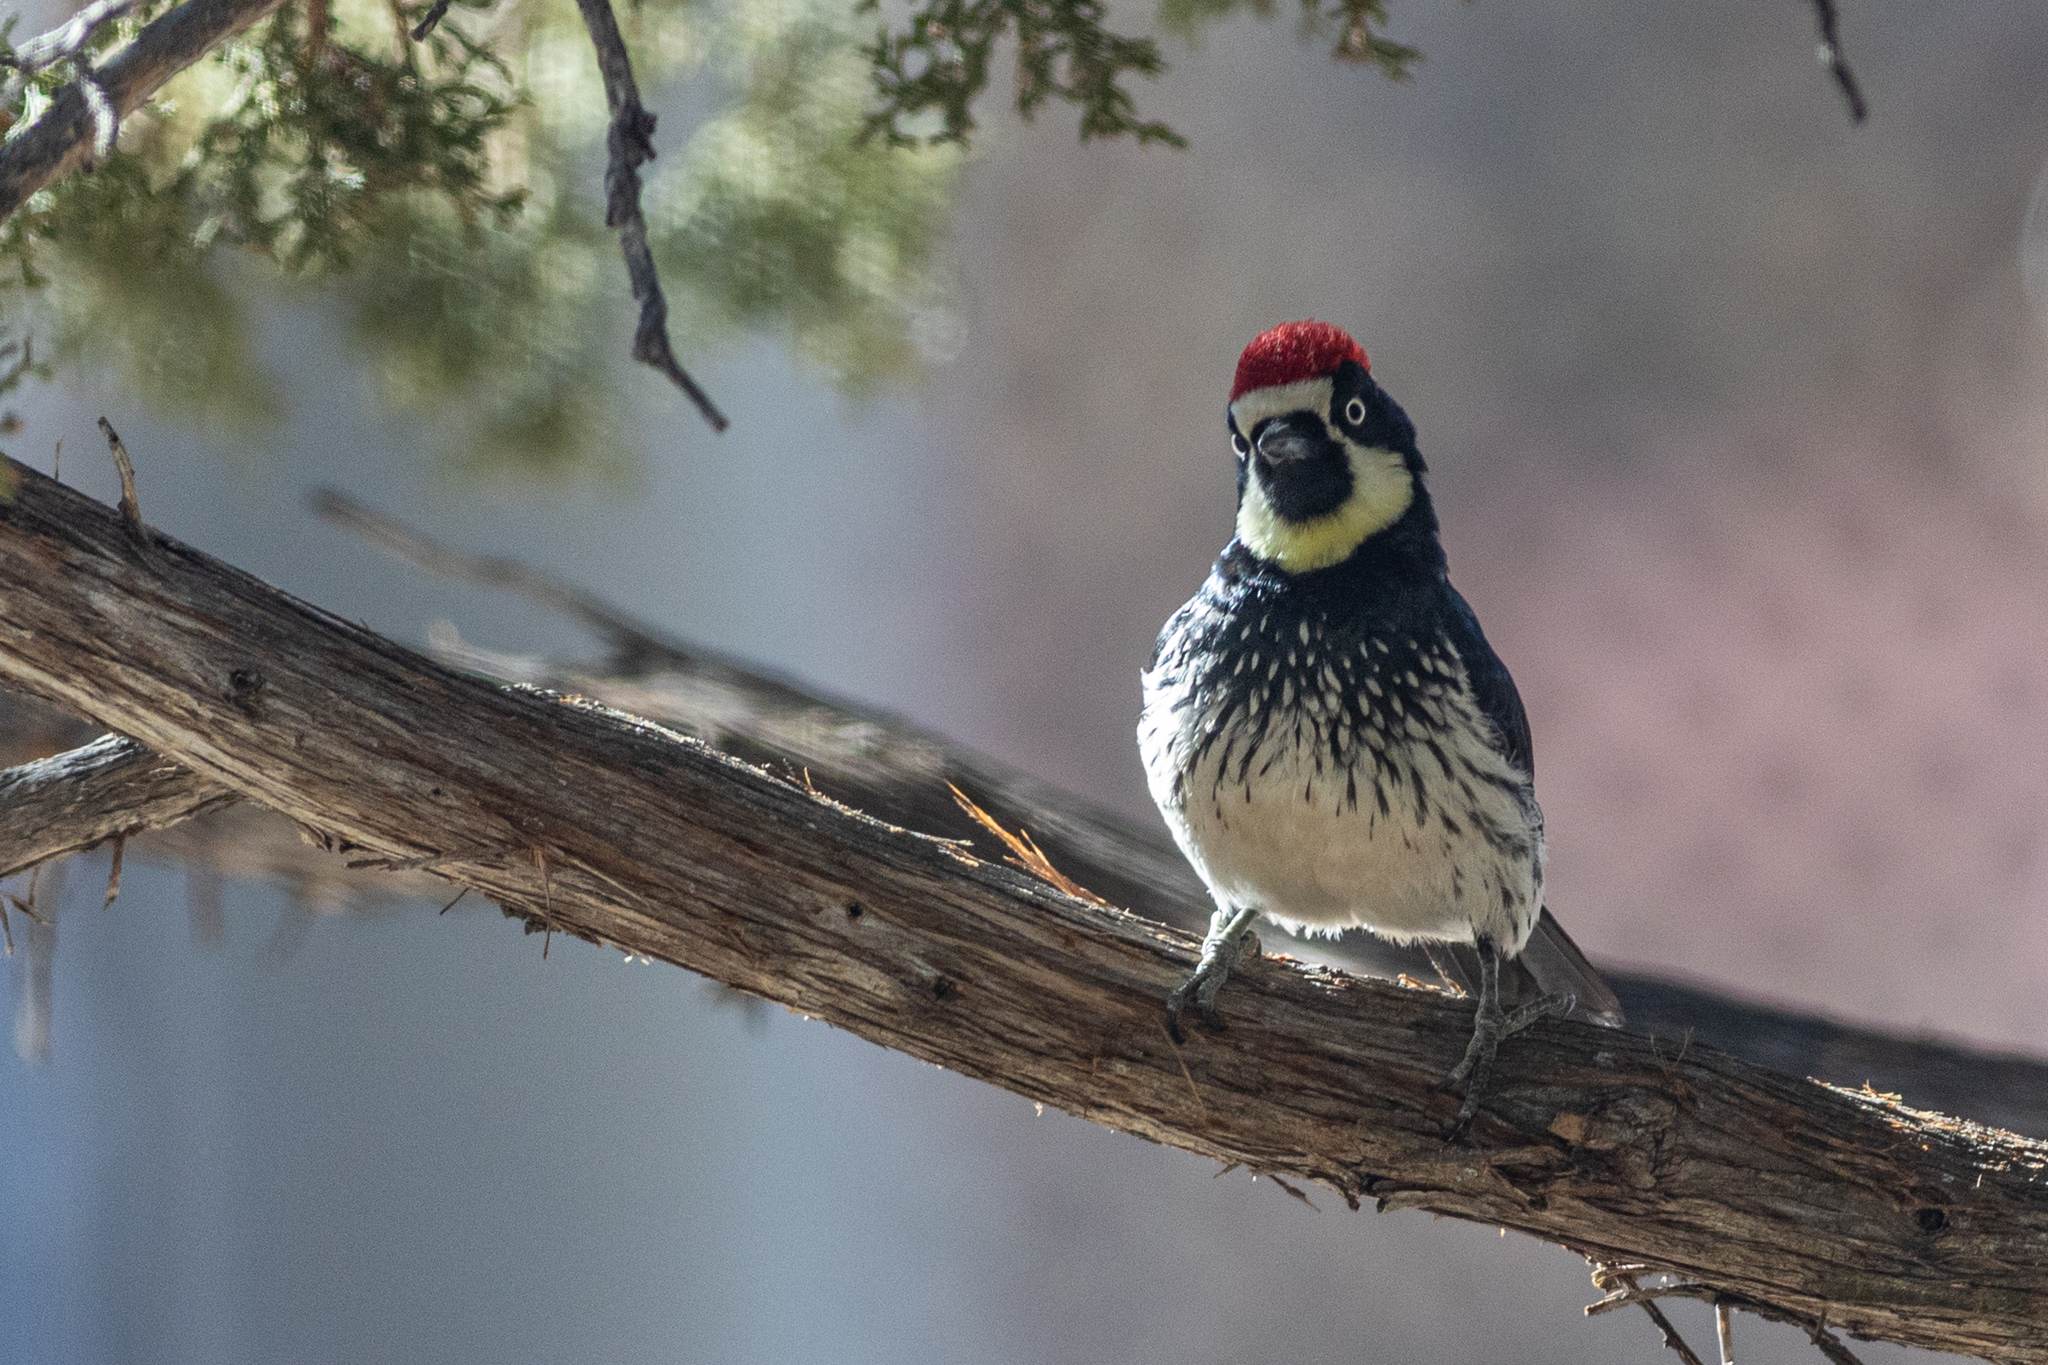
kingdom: Animalia
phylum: Chordata
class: Aves
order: Piciformes
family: Picidae
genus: Melanerpes
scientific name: Melanerpes formicivorus
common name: Acorn woodpecker
